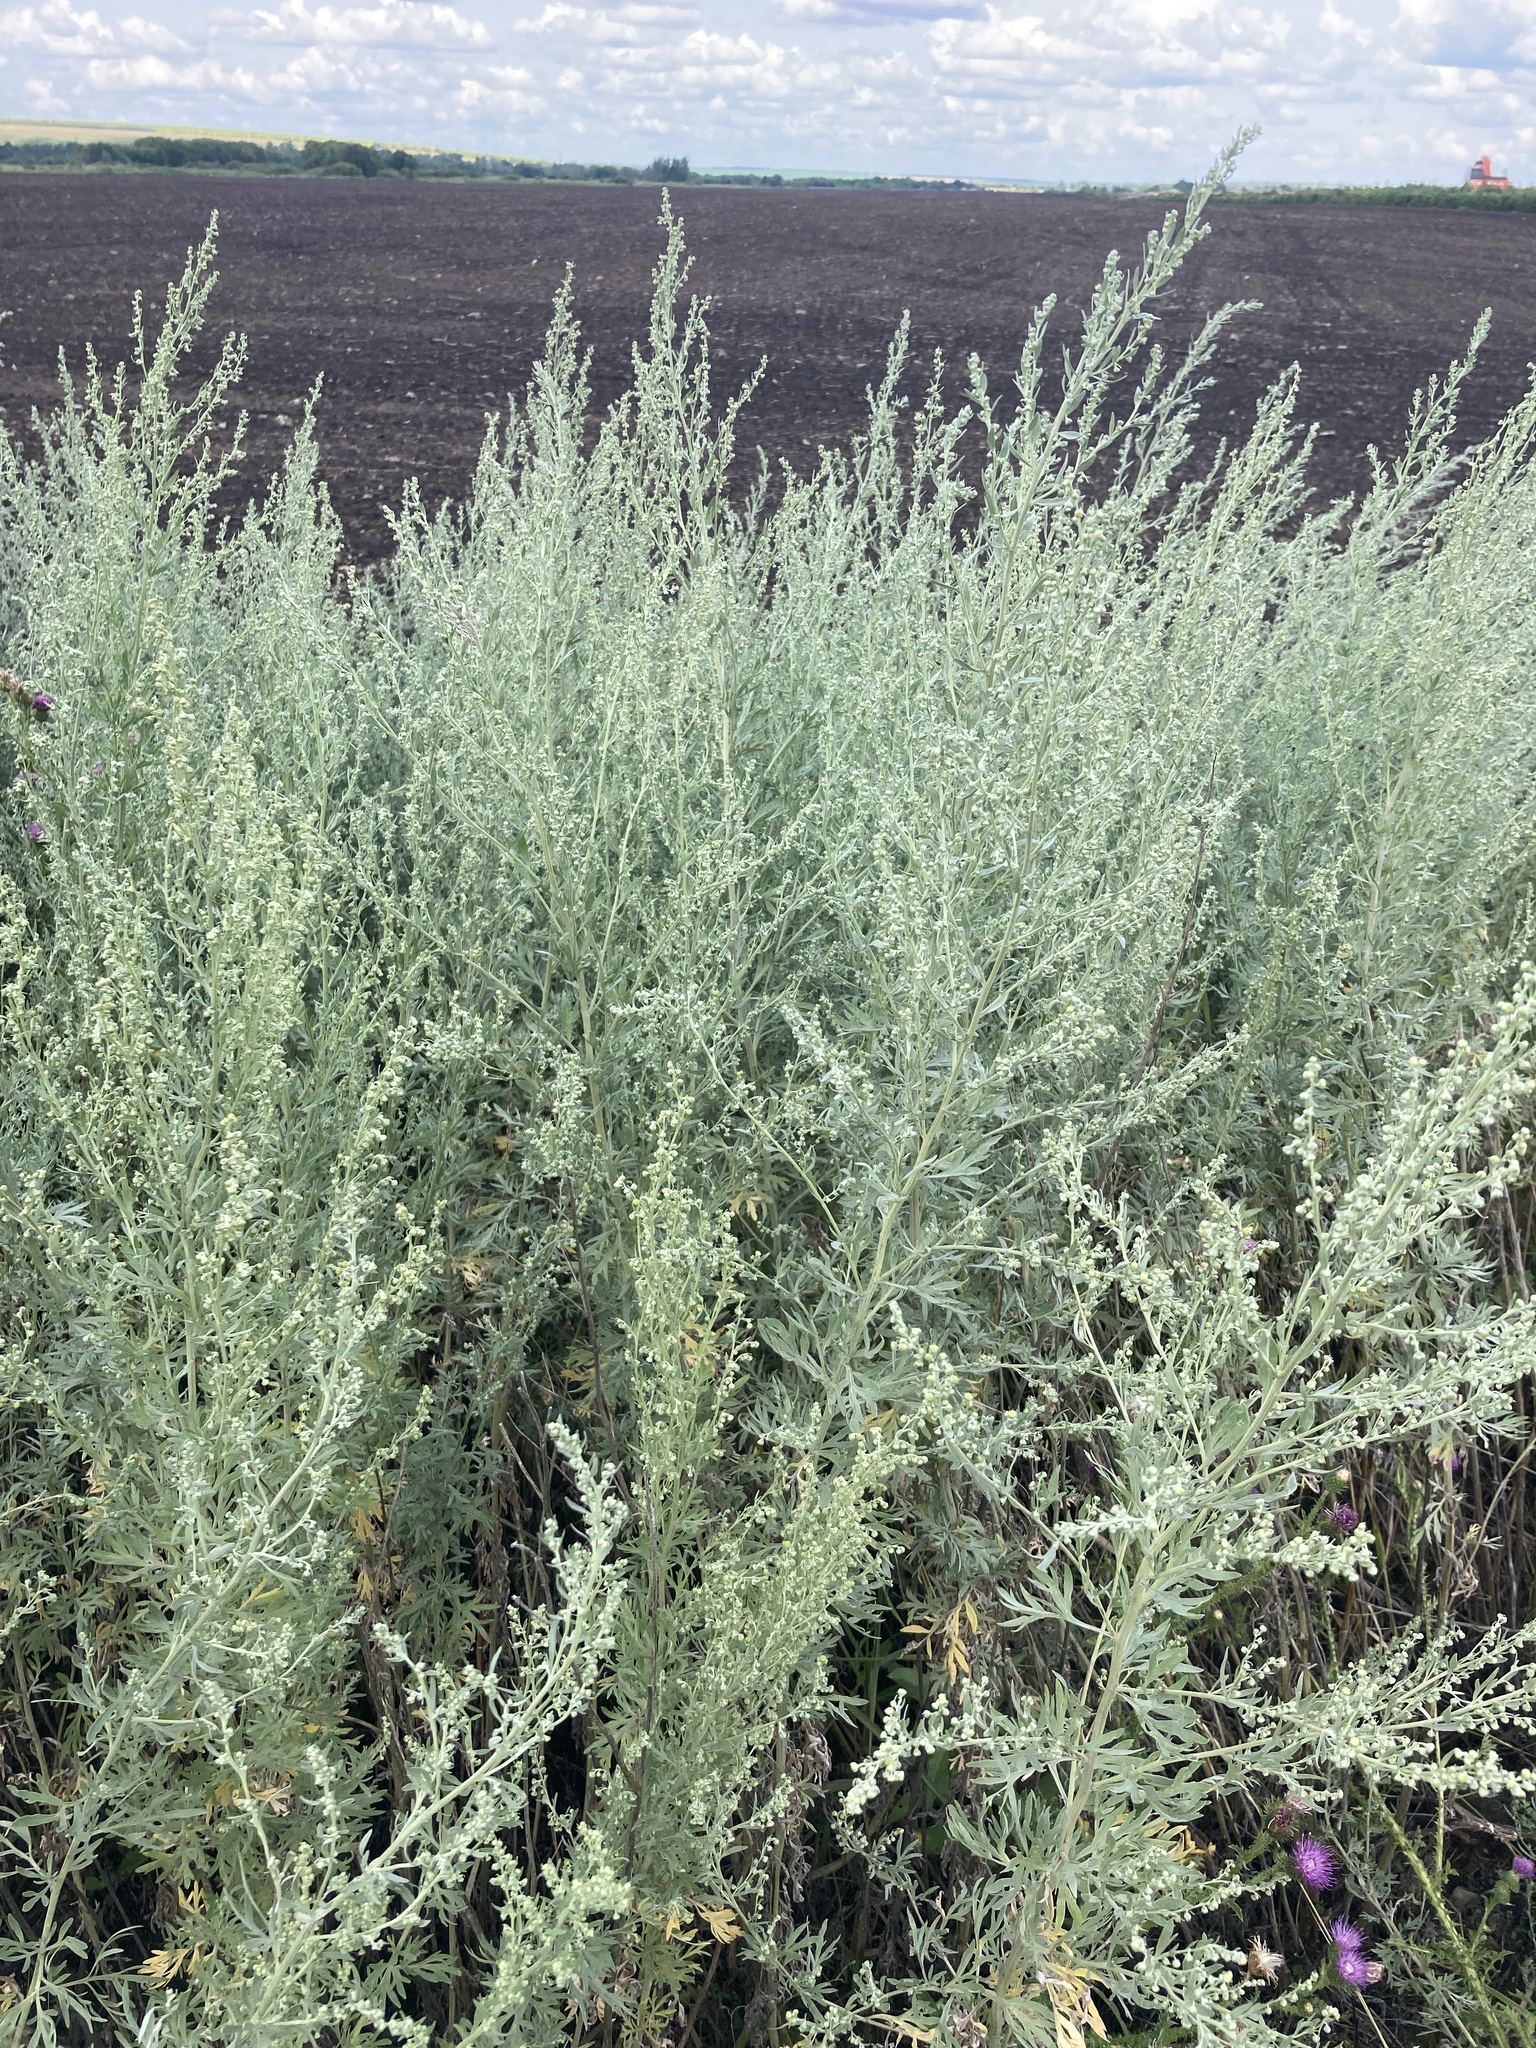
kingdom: Plantae
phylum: Tracheophyta
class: Magnoliopsida
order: Asterales
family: Asteraceae
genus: Artemisia
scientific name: Artemisia absinthium
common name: Wormwood
